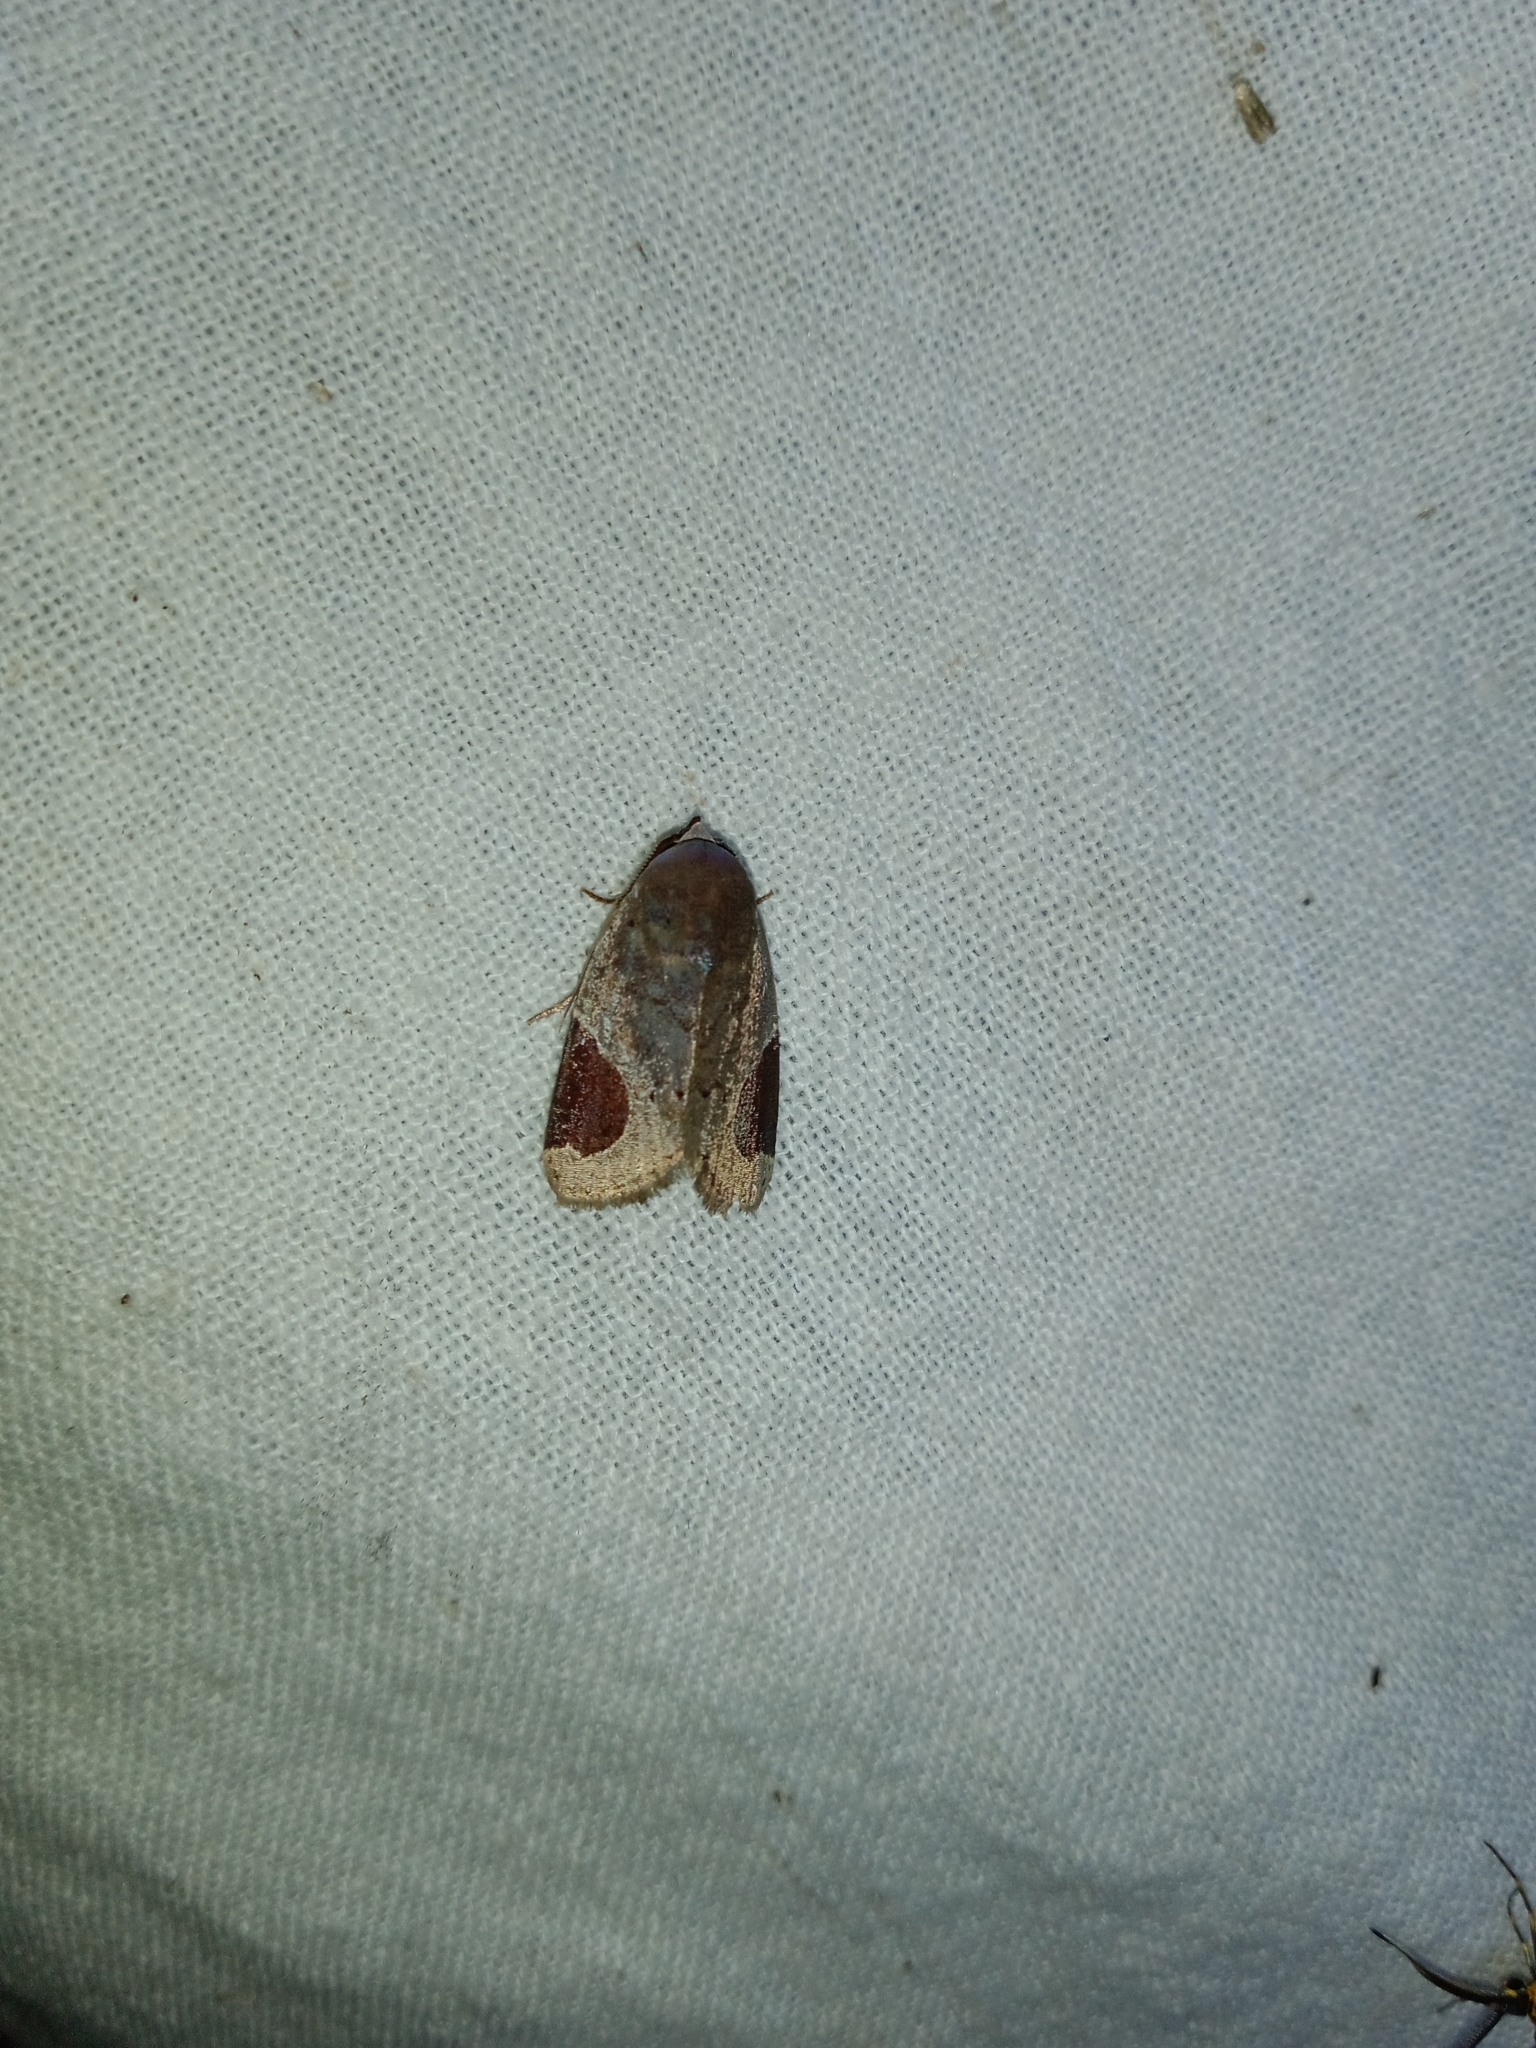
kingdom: Animalia
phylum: Arthropoda
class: Insecta
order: Lepidoptera
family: Noctuidae
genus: Dyrzela
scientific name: Dyrzela plagiata
